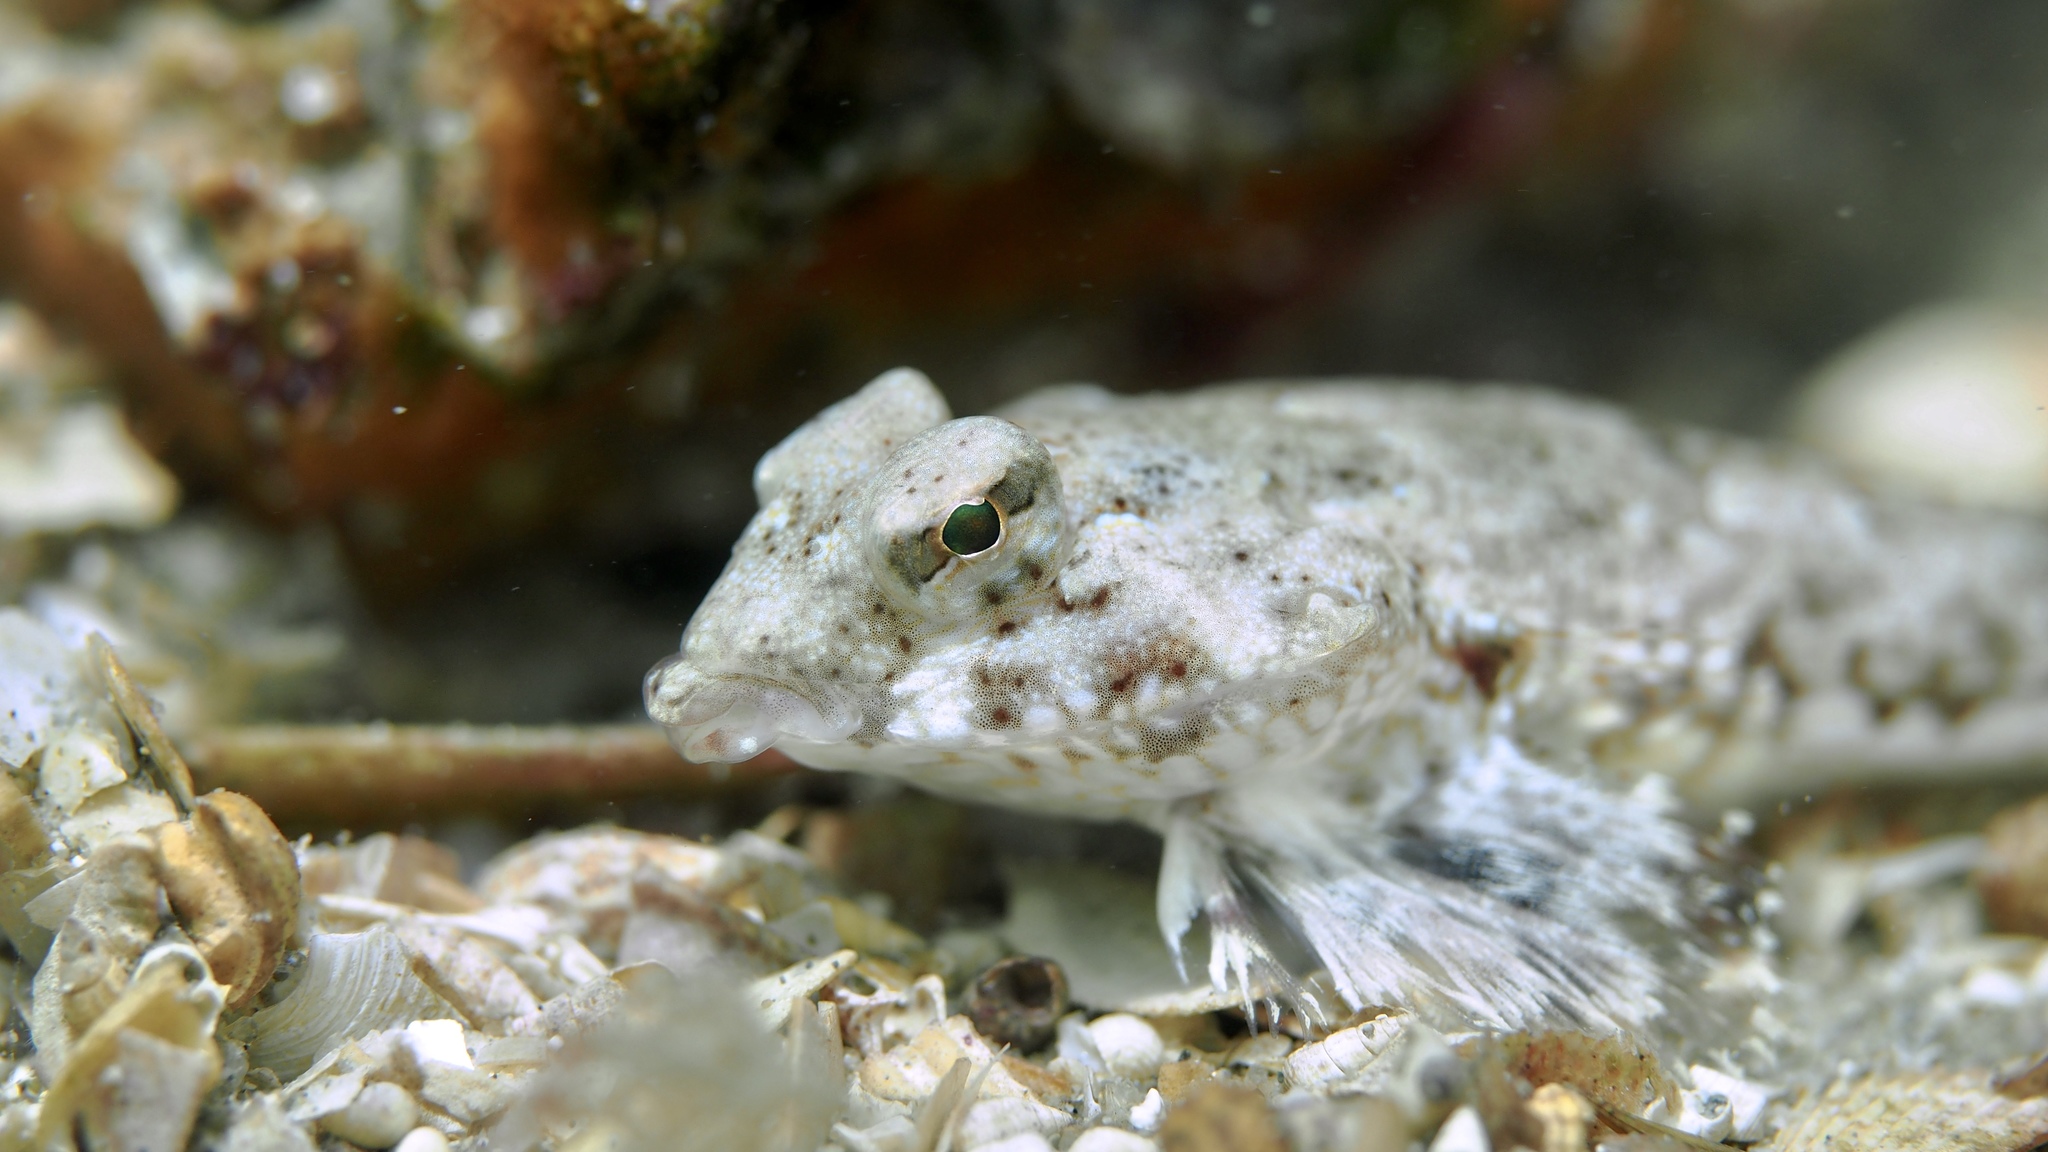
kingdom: Animalia
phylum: Chordata
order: Perciformes
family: Callionymidae
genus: Synchiropus
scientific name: Synchiropus papilio
